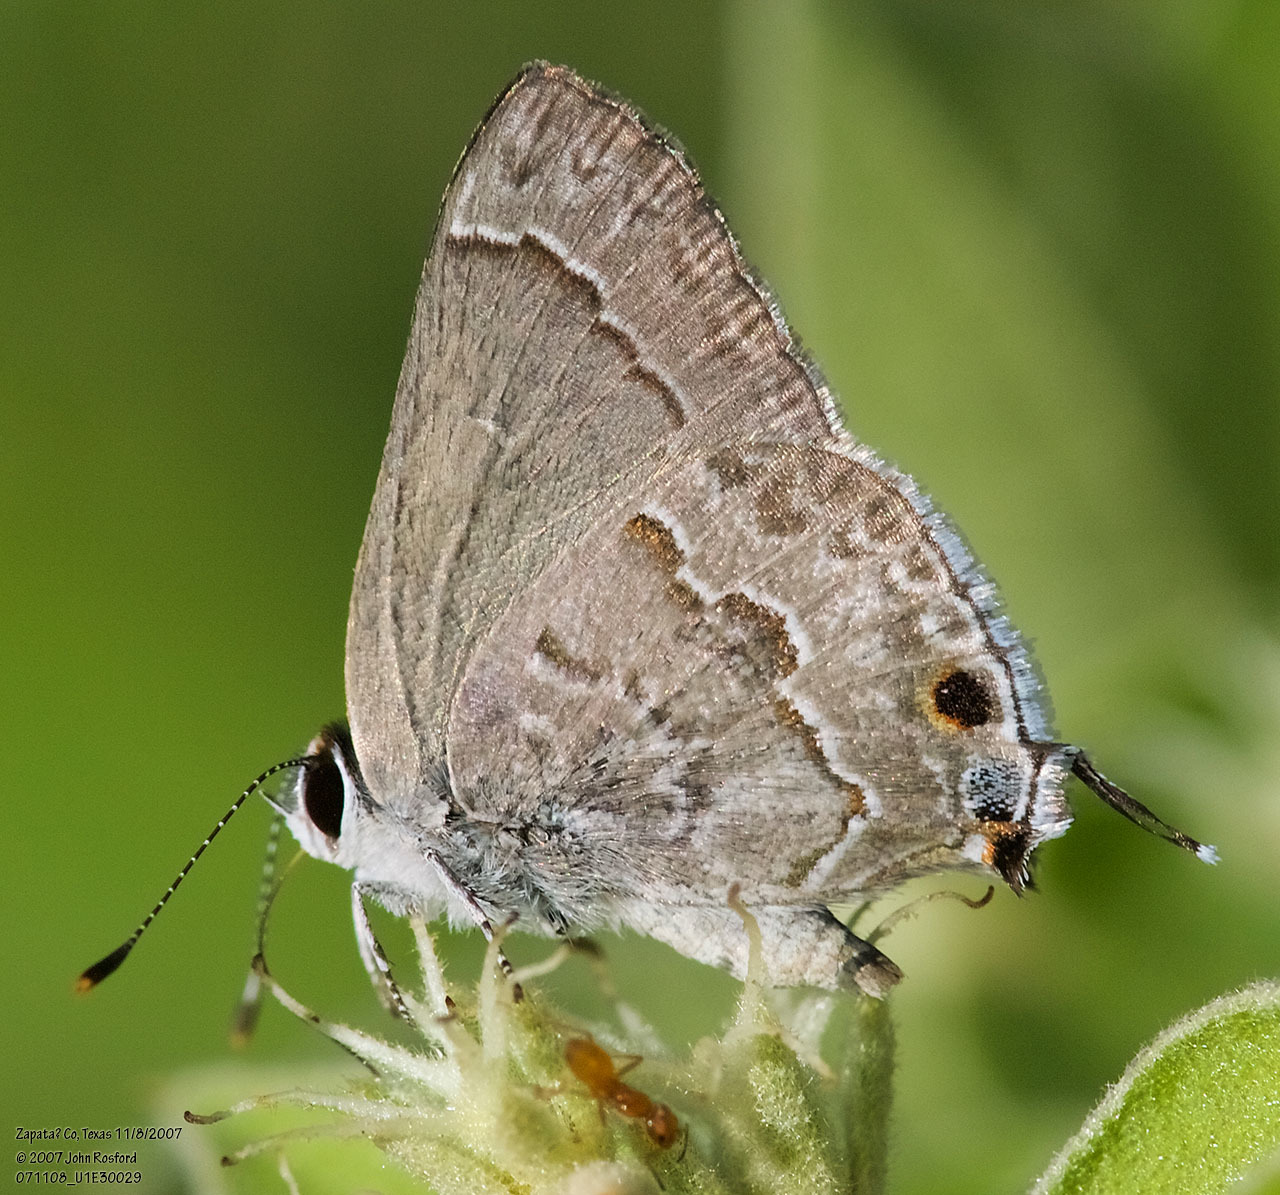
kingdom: Animalia
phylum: Arthropoda
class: Insecta
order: Lepidoptera
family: Lycaenidae
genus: Strymon
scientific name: Strymon alea
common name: Lacey's scrub-hairstreak
